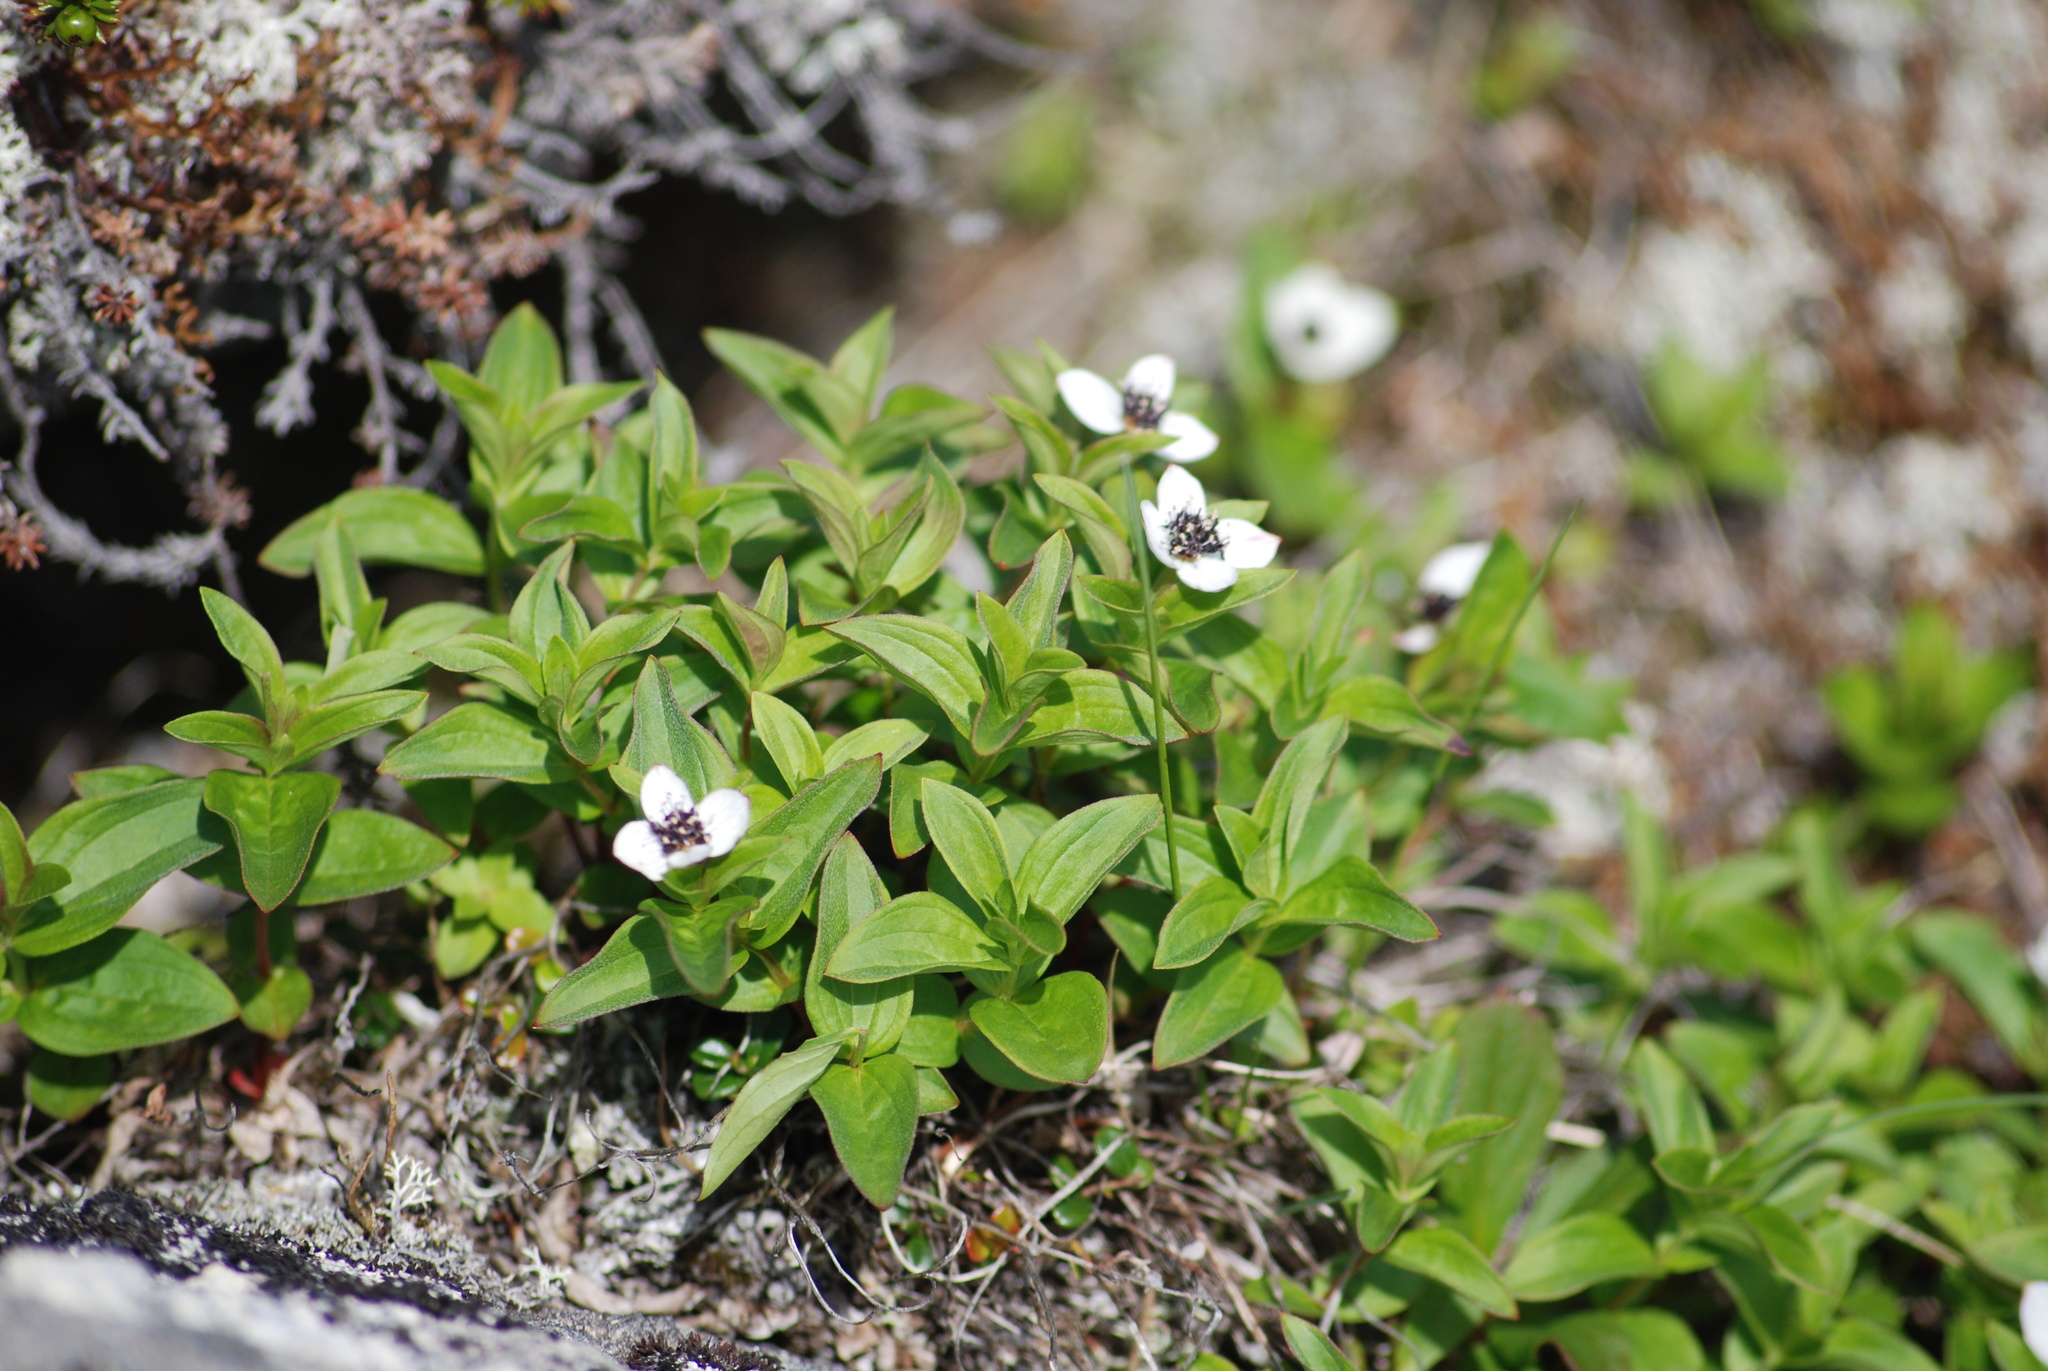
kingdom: Plantae
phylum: Tracheophyta
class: Magnoliopsida
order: Cornales
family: Cornaceae
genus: Cornus
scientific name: Cornus suecica
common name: Dwarf cornel
